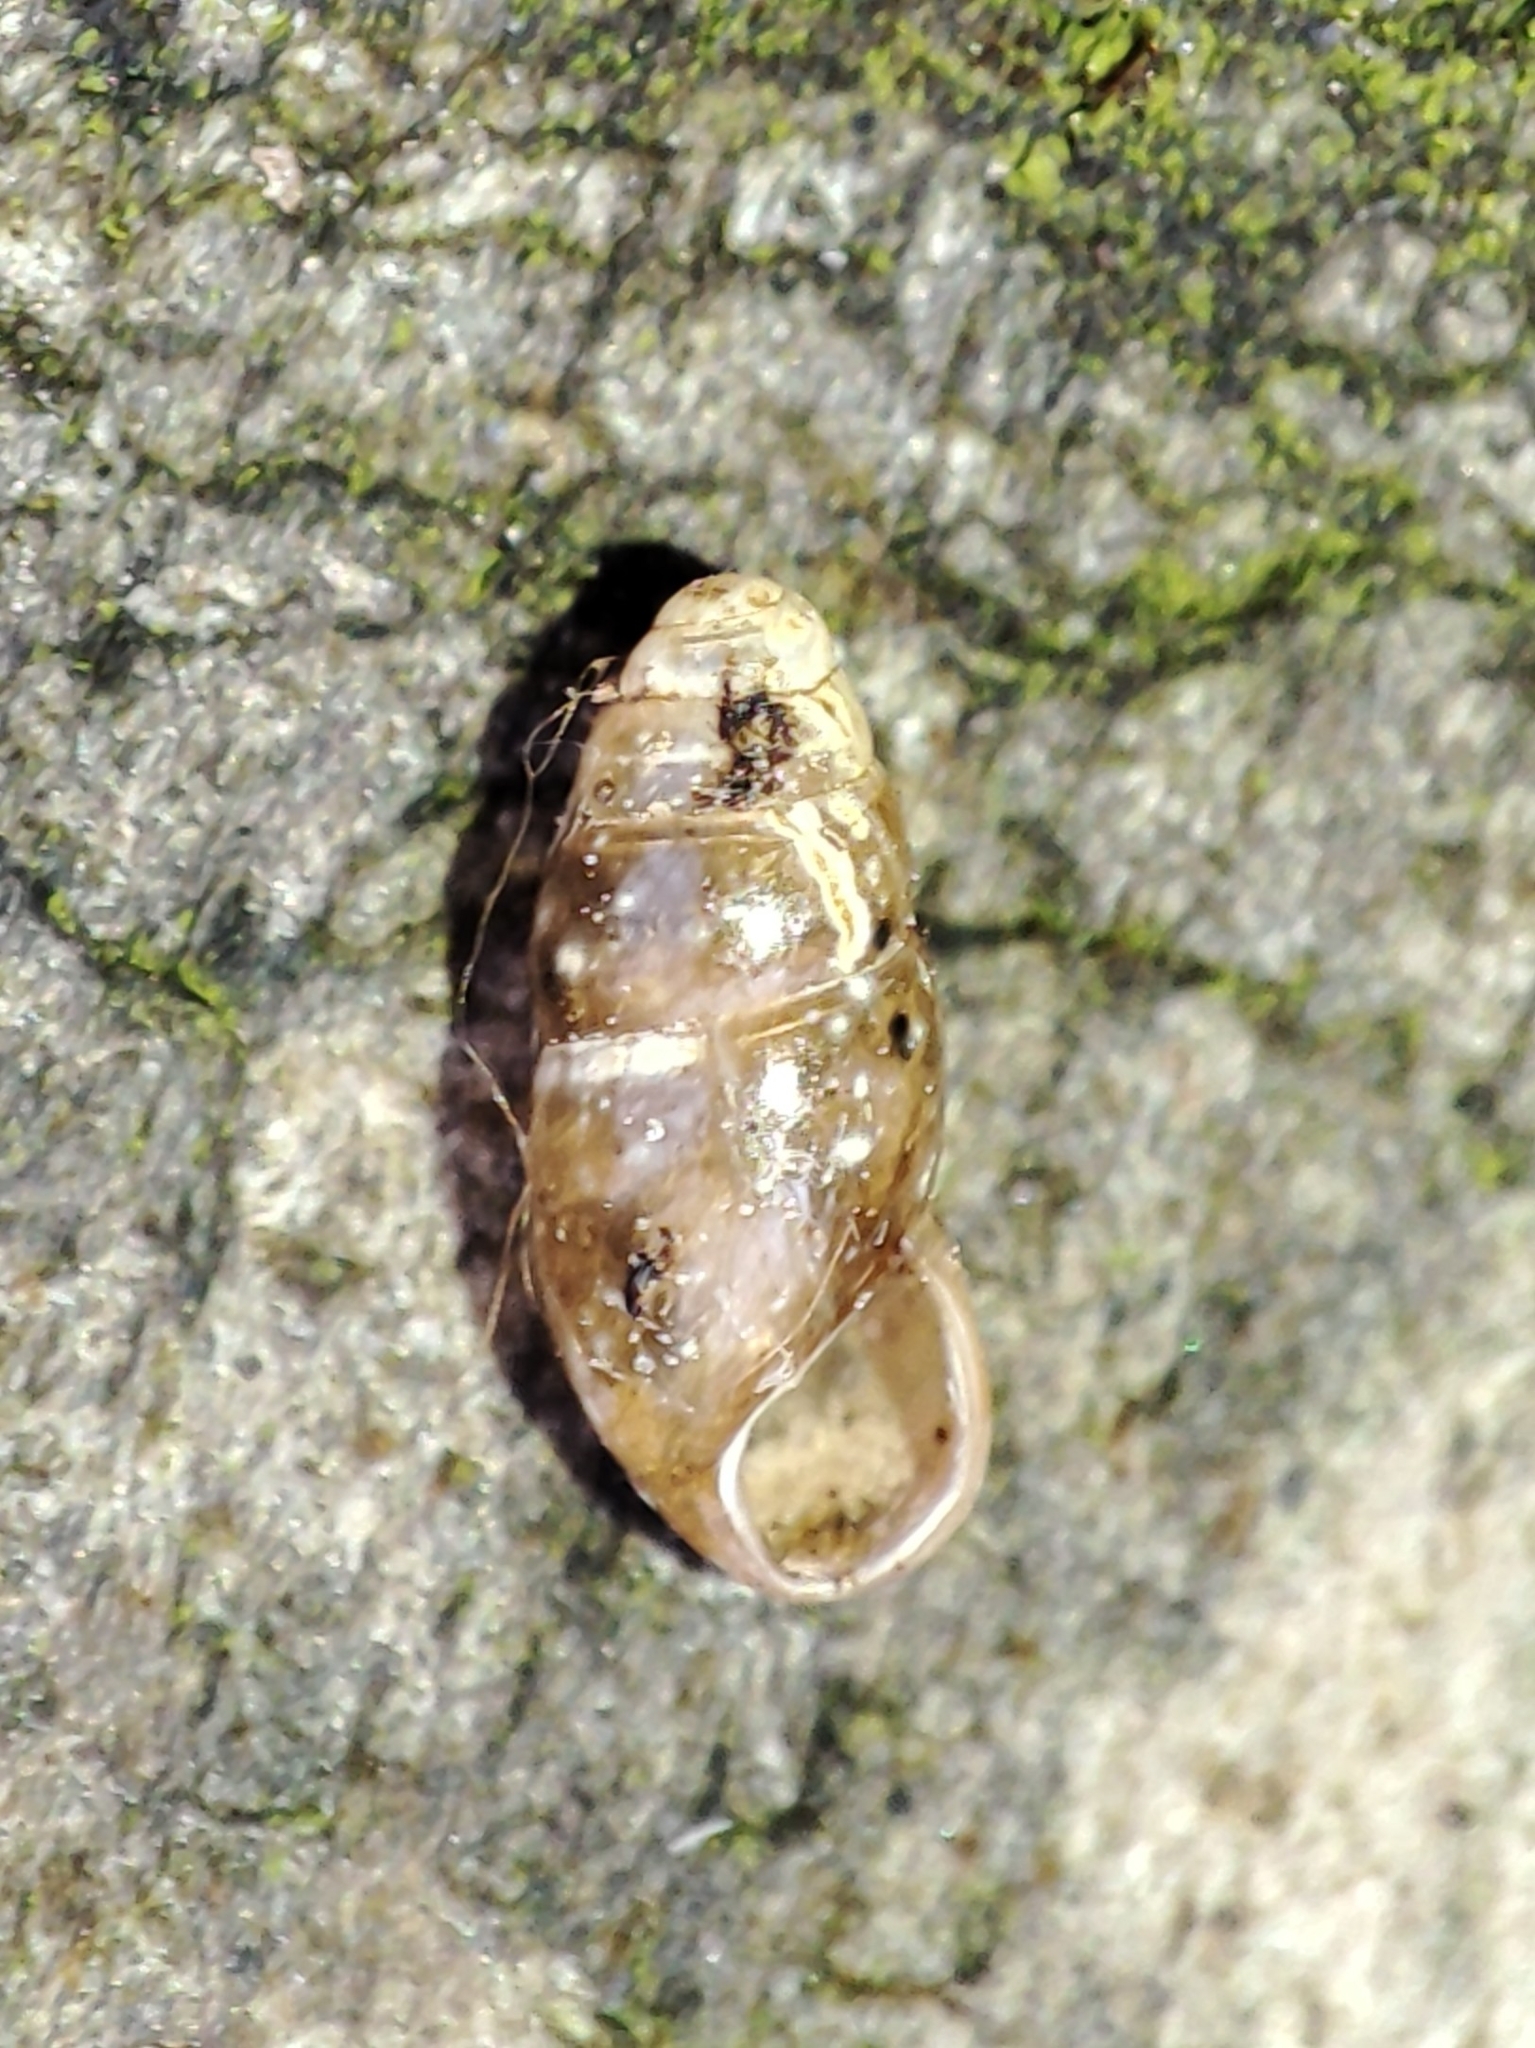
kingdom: Animalia
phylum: Mollusca
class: Gastropoda
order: Stylommatophora
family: Cochlicopidae
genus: Cochlicopa
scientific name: Cochlicopa lubricella
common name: Lesser slippery moss snail
